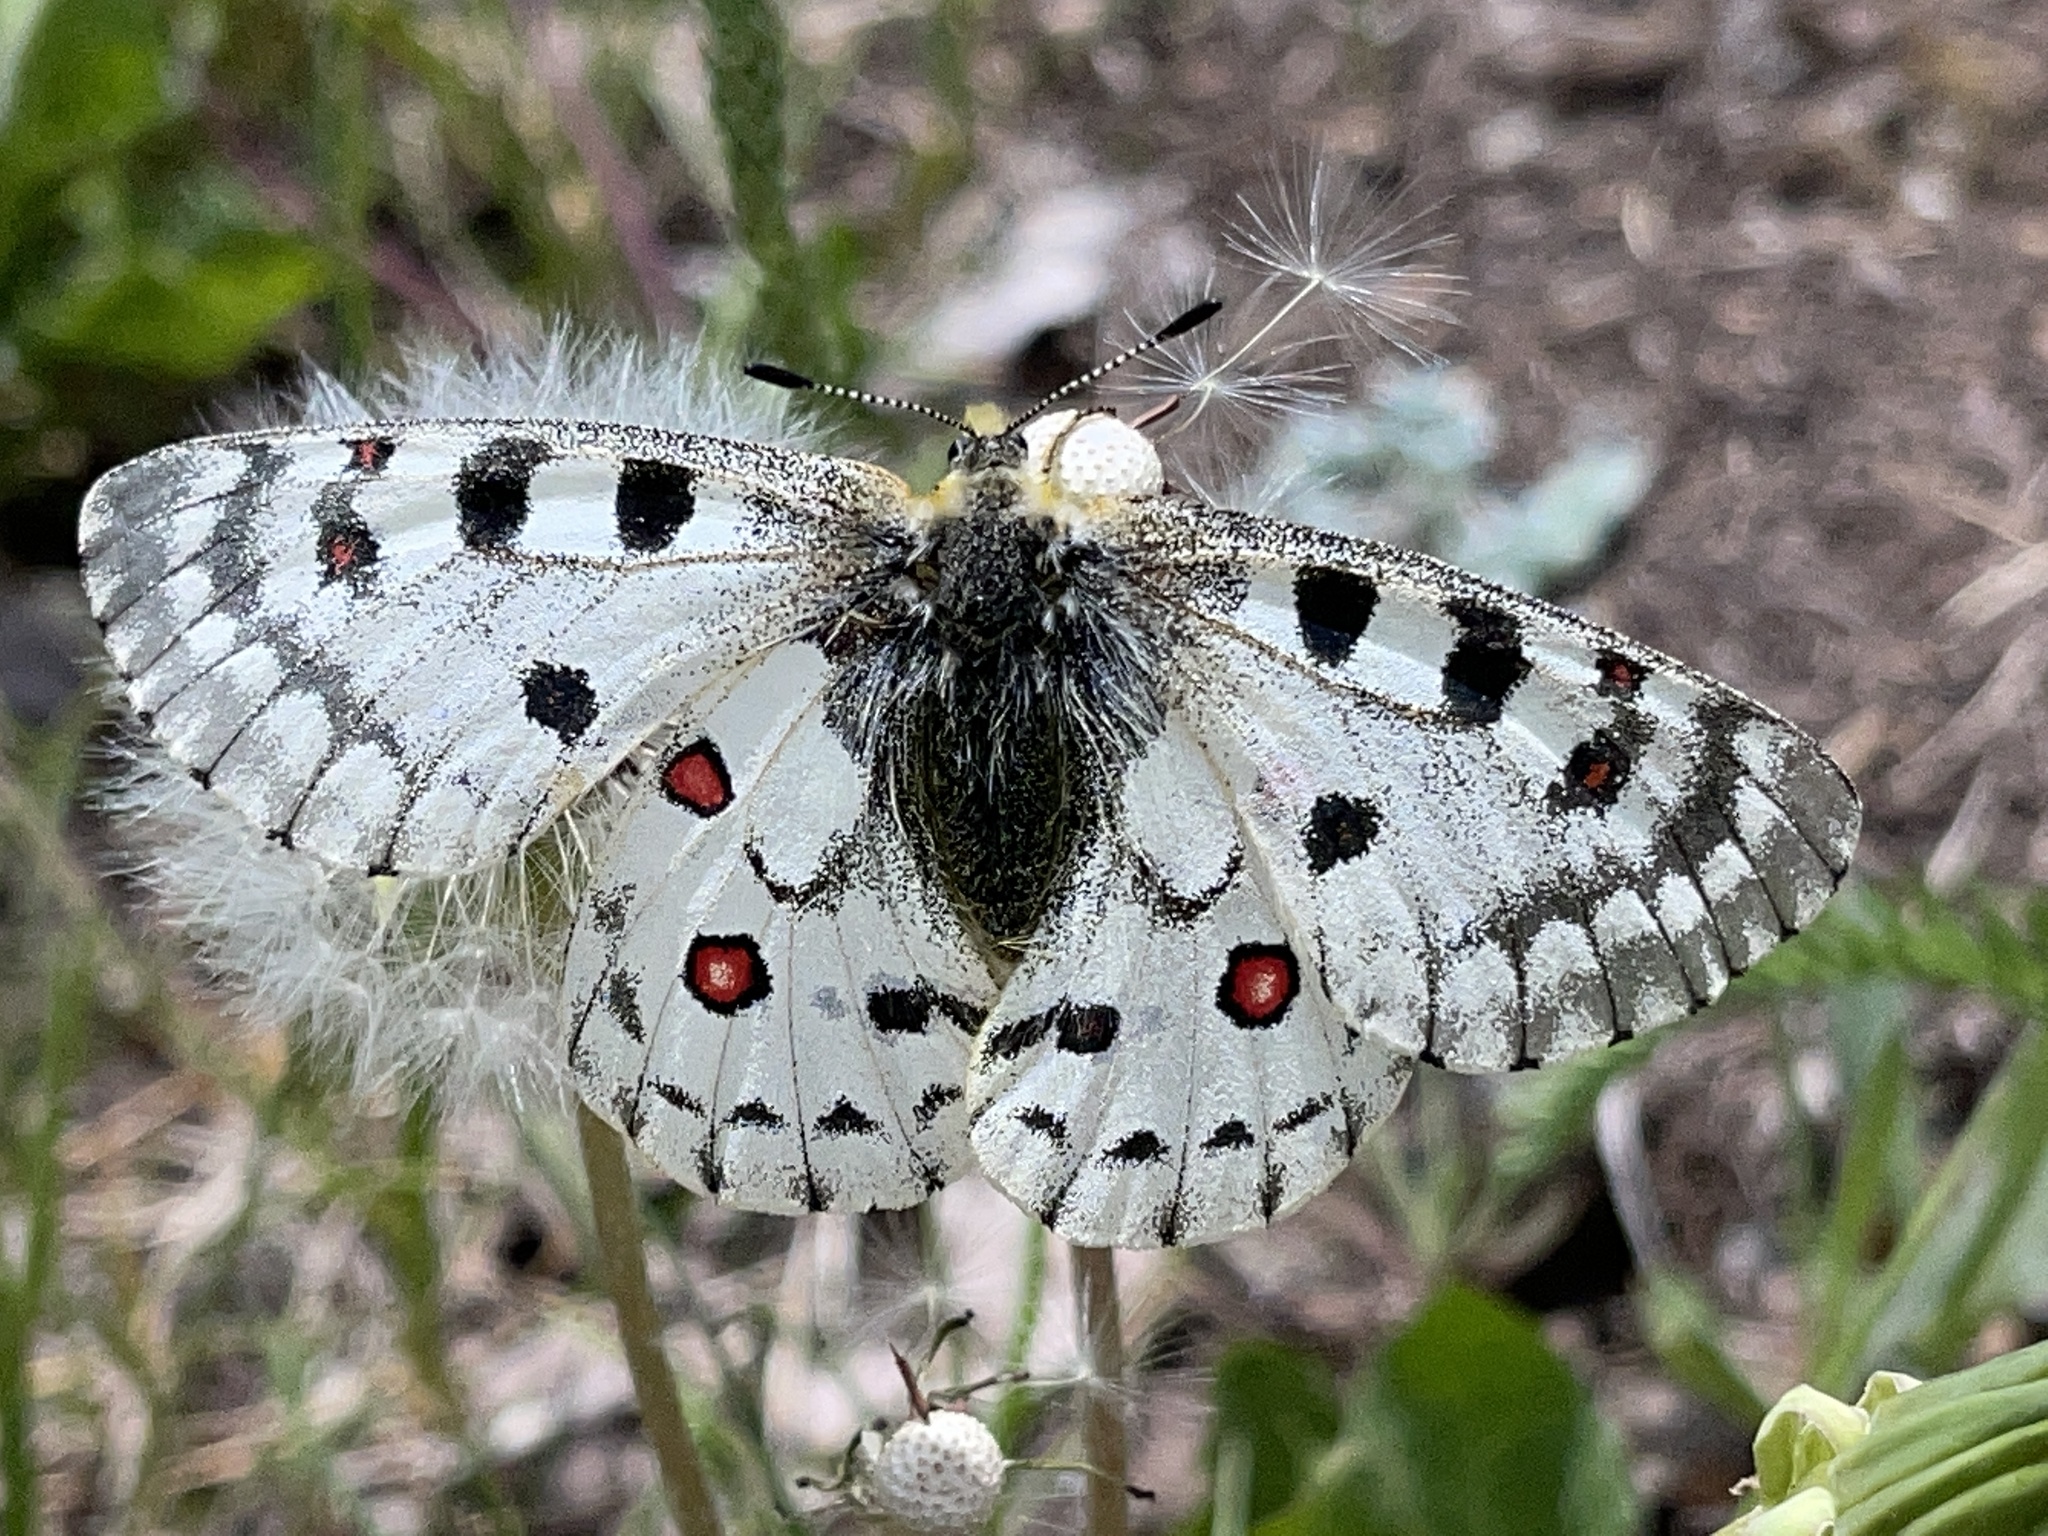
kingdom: Animalia
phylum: Arthropoda
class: Insecta
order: Lepidoptera
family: Papilionidae
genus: Parnassius
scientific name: Parnassius smintheus
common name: Mountain parnassian
